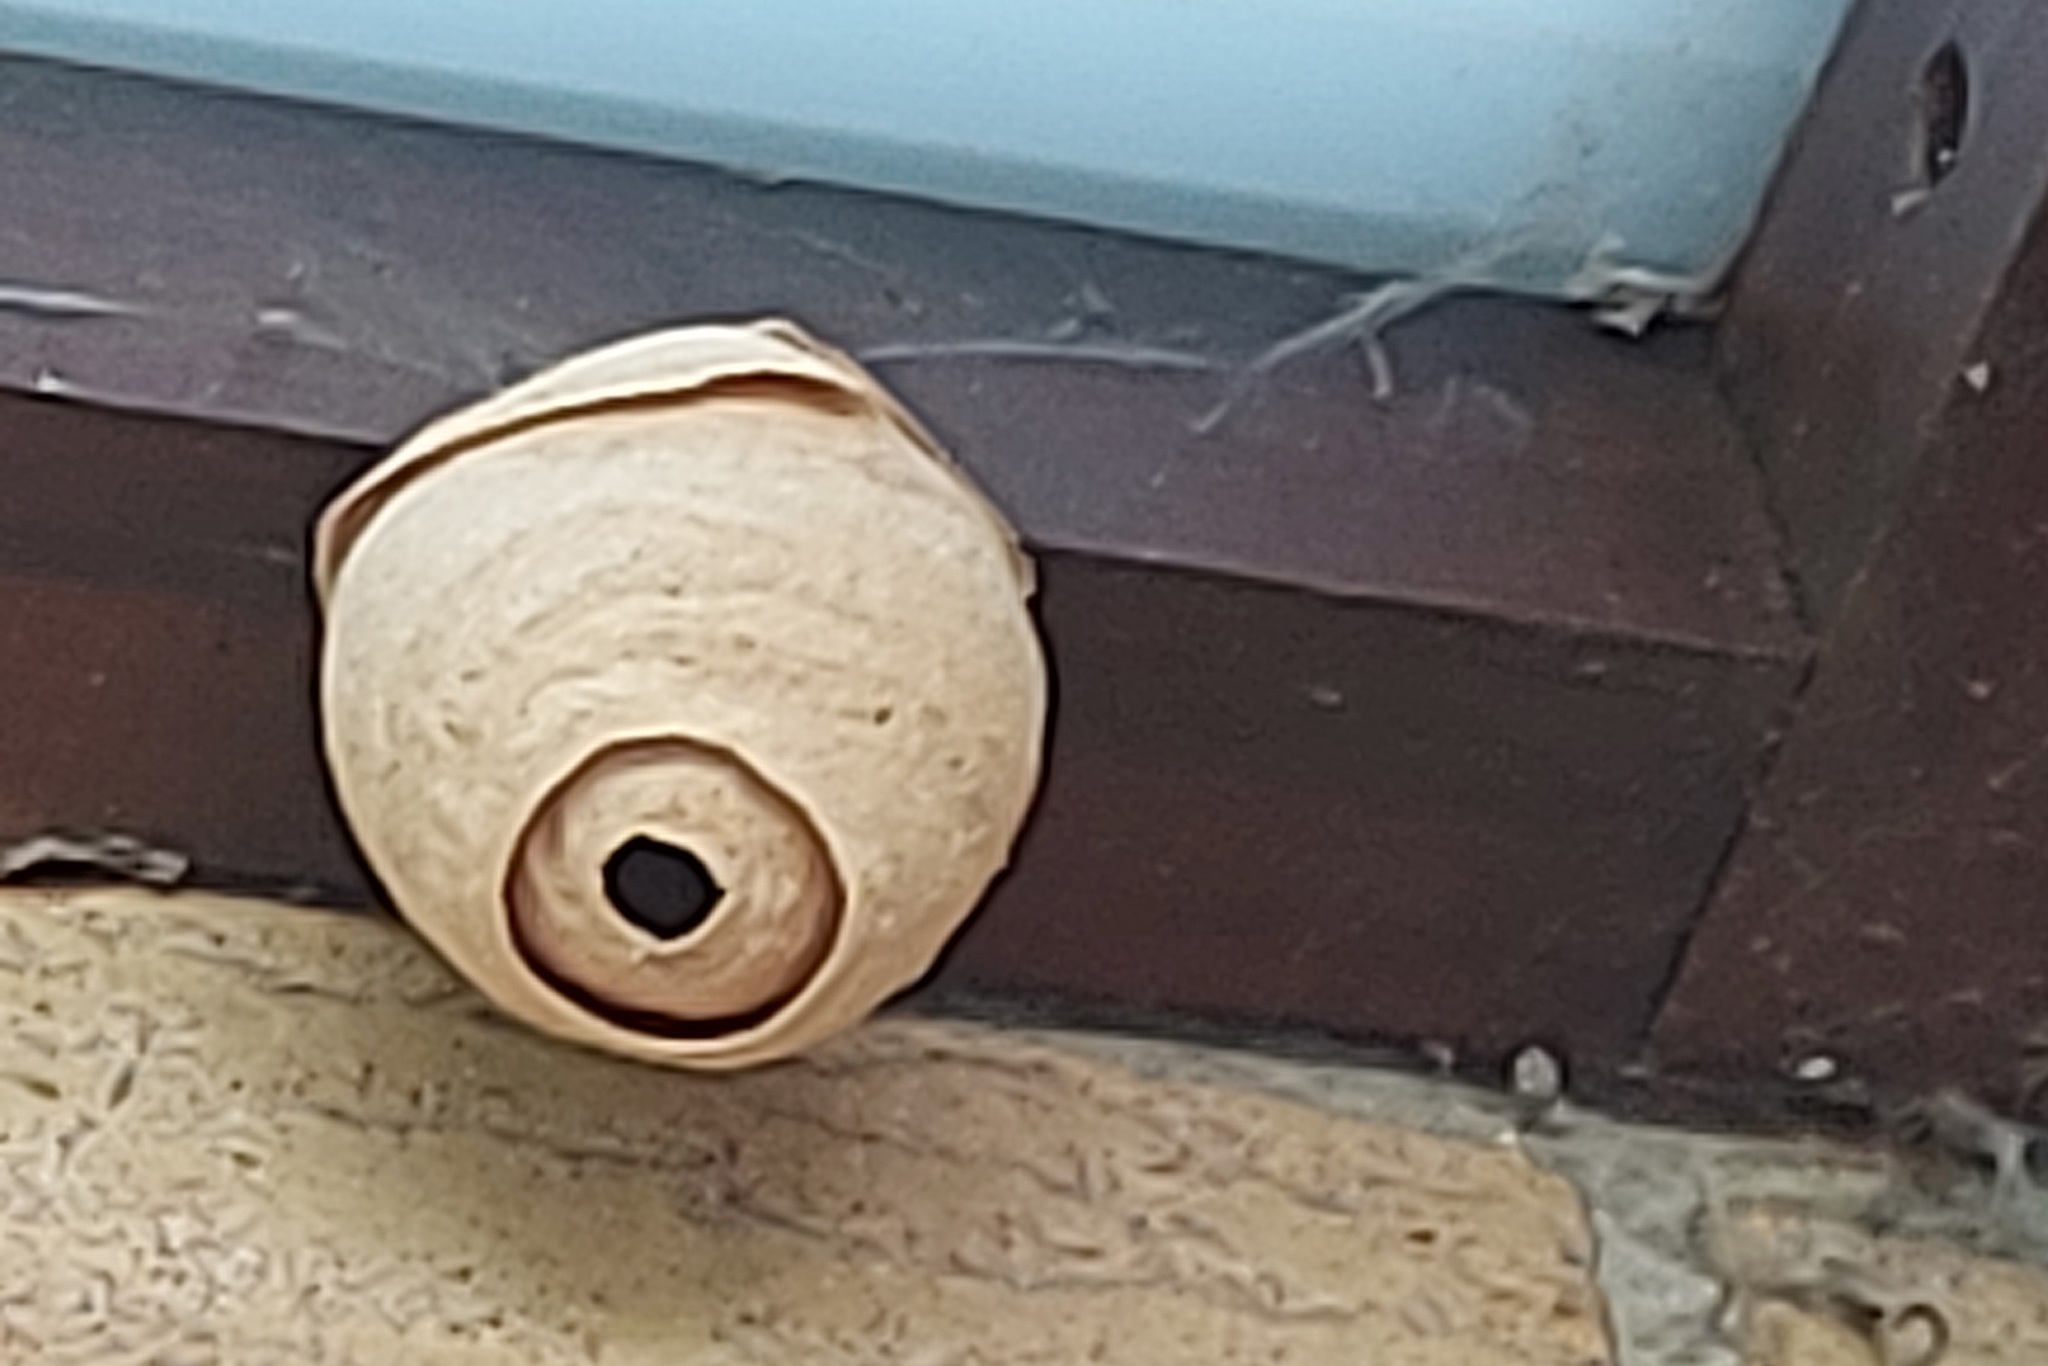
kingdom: Animalia
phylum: Arthropoda
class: Insecta
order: Hymenoptera
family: Vespidae
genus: Vespa
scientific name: Vespa velutina
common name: Asian hornet
